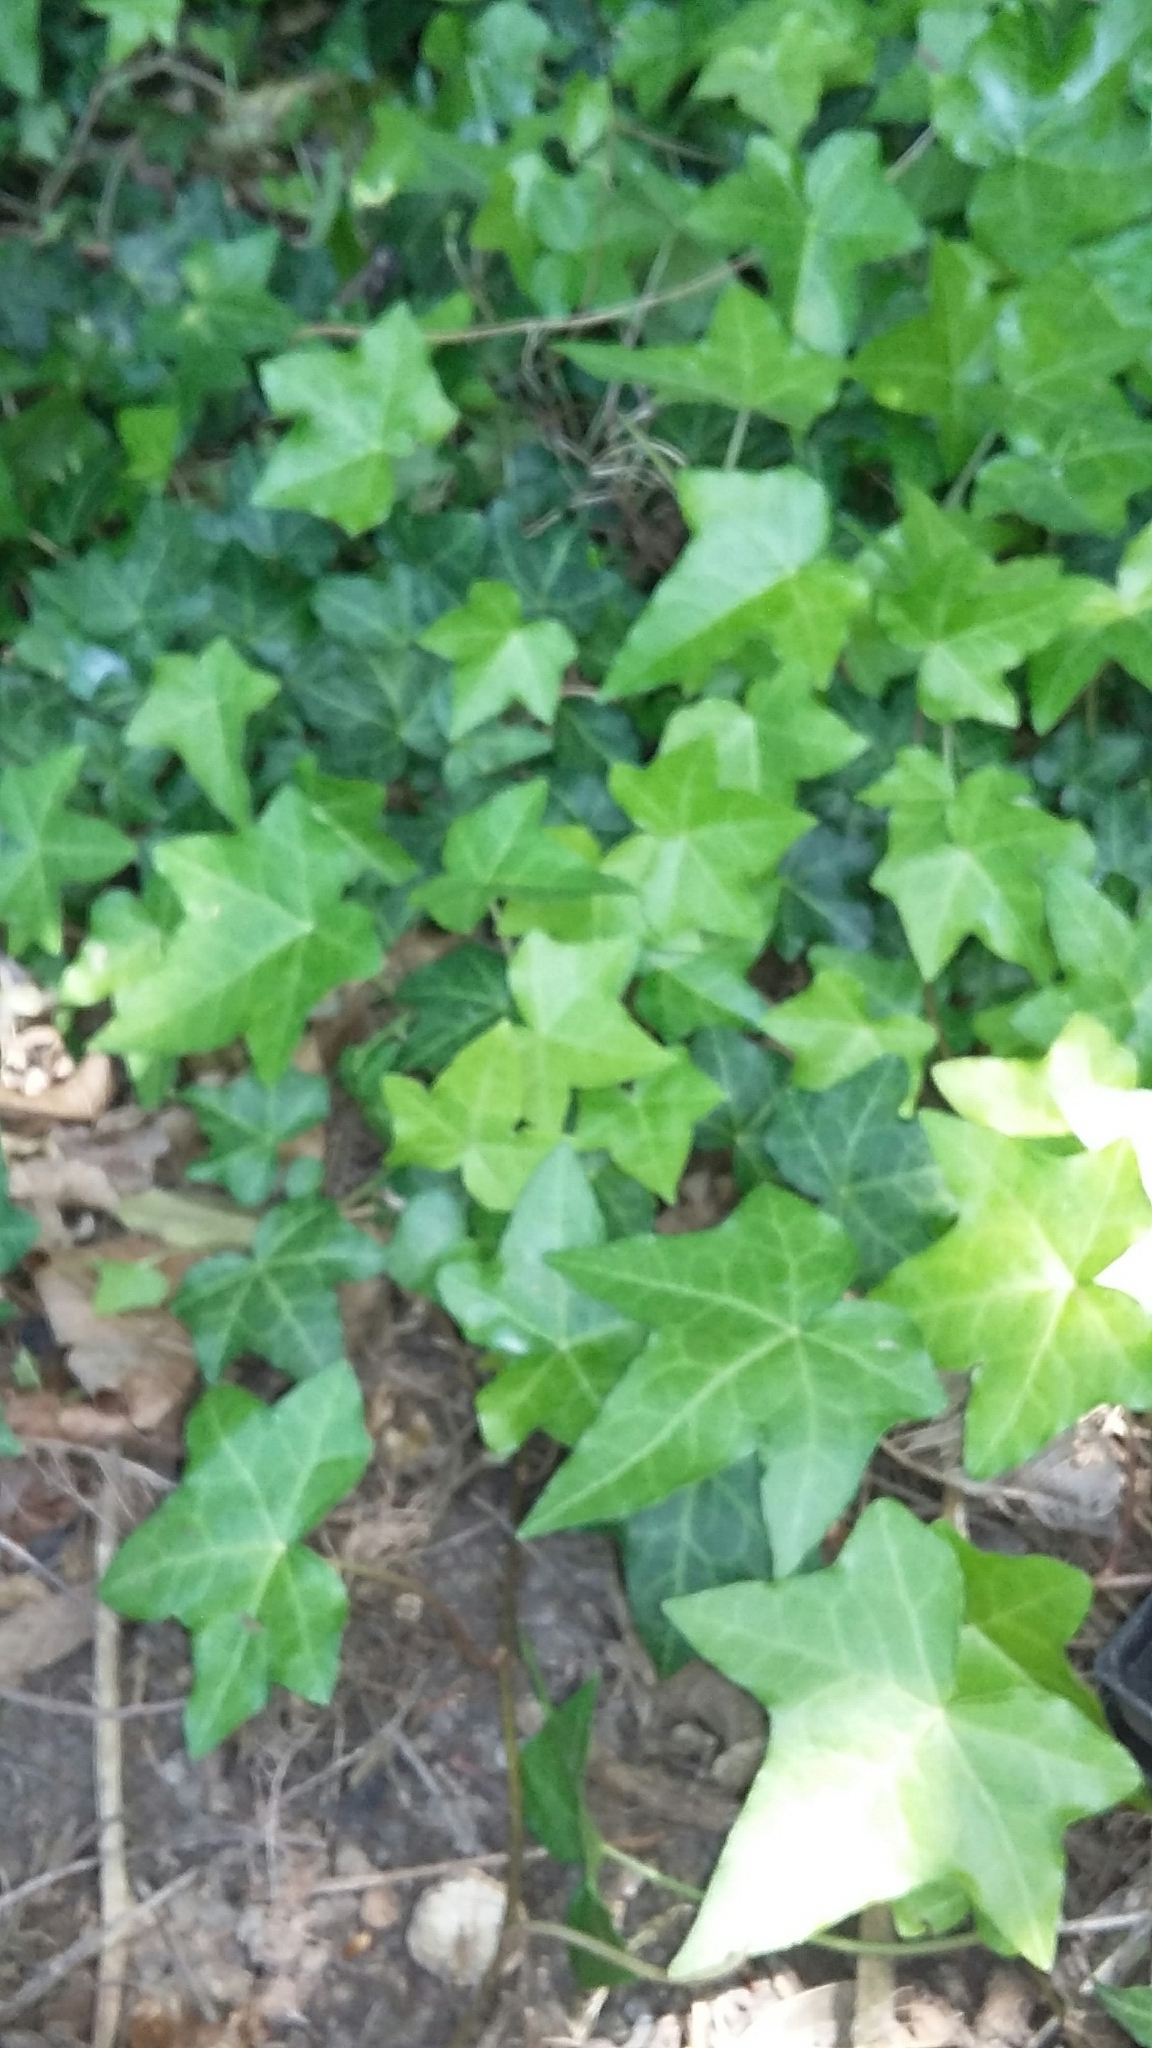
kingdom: Plantae
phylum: Tracheophyta
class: Magnoliopsida
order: Apiales
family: Araliaceae
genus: Hedera
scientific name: Hedera helix
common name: Ivy
